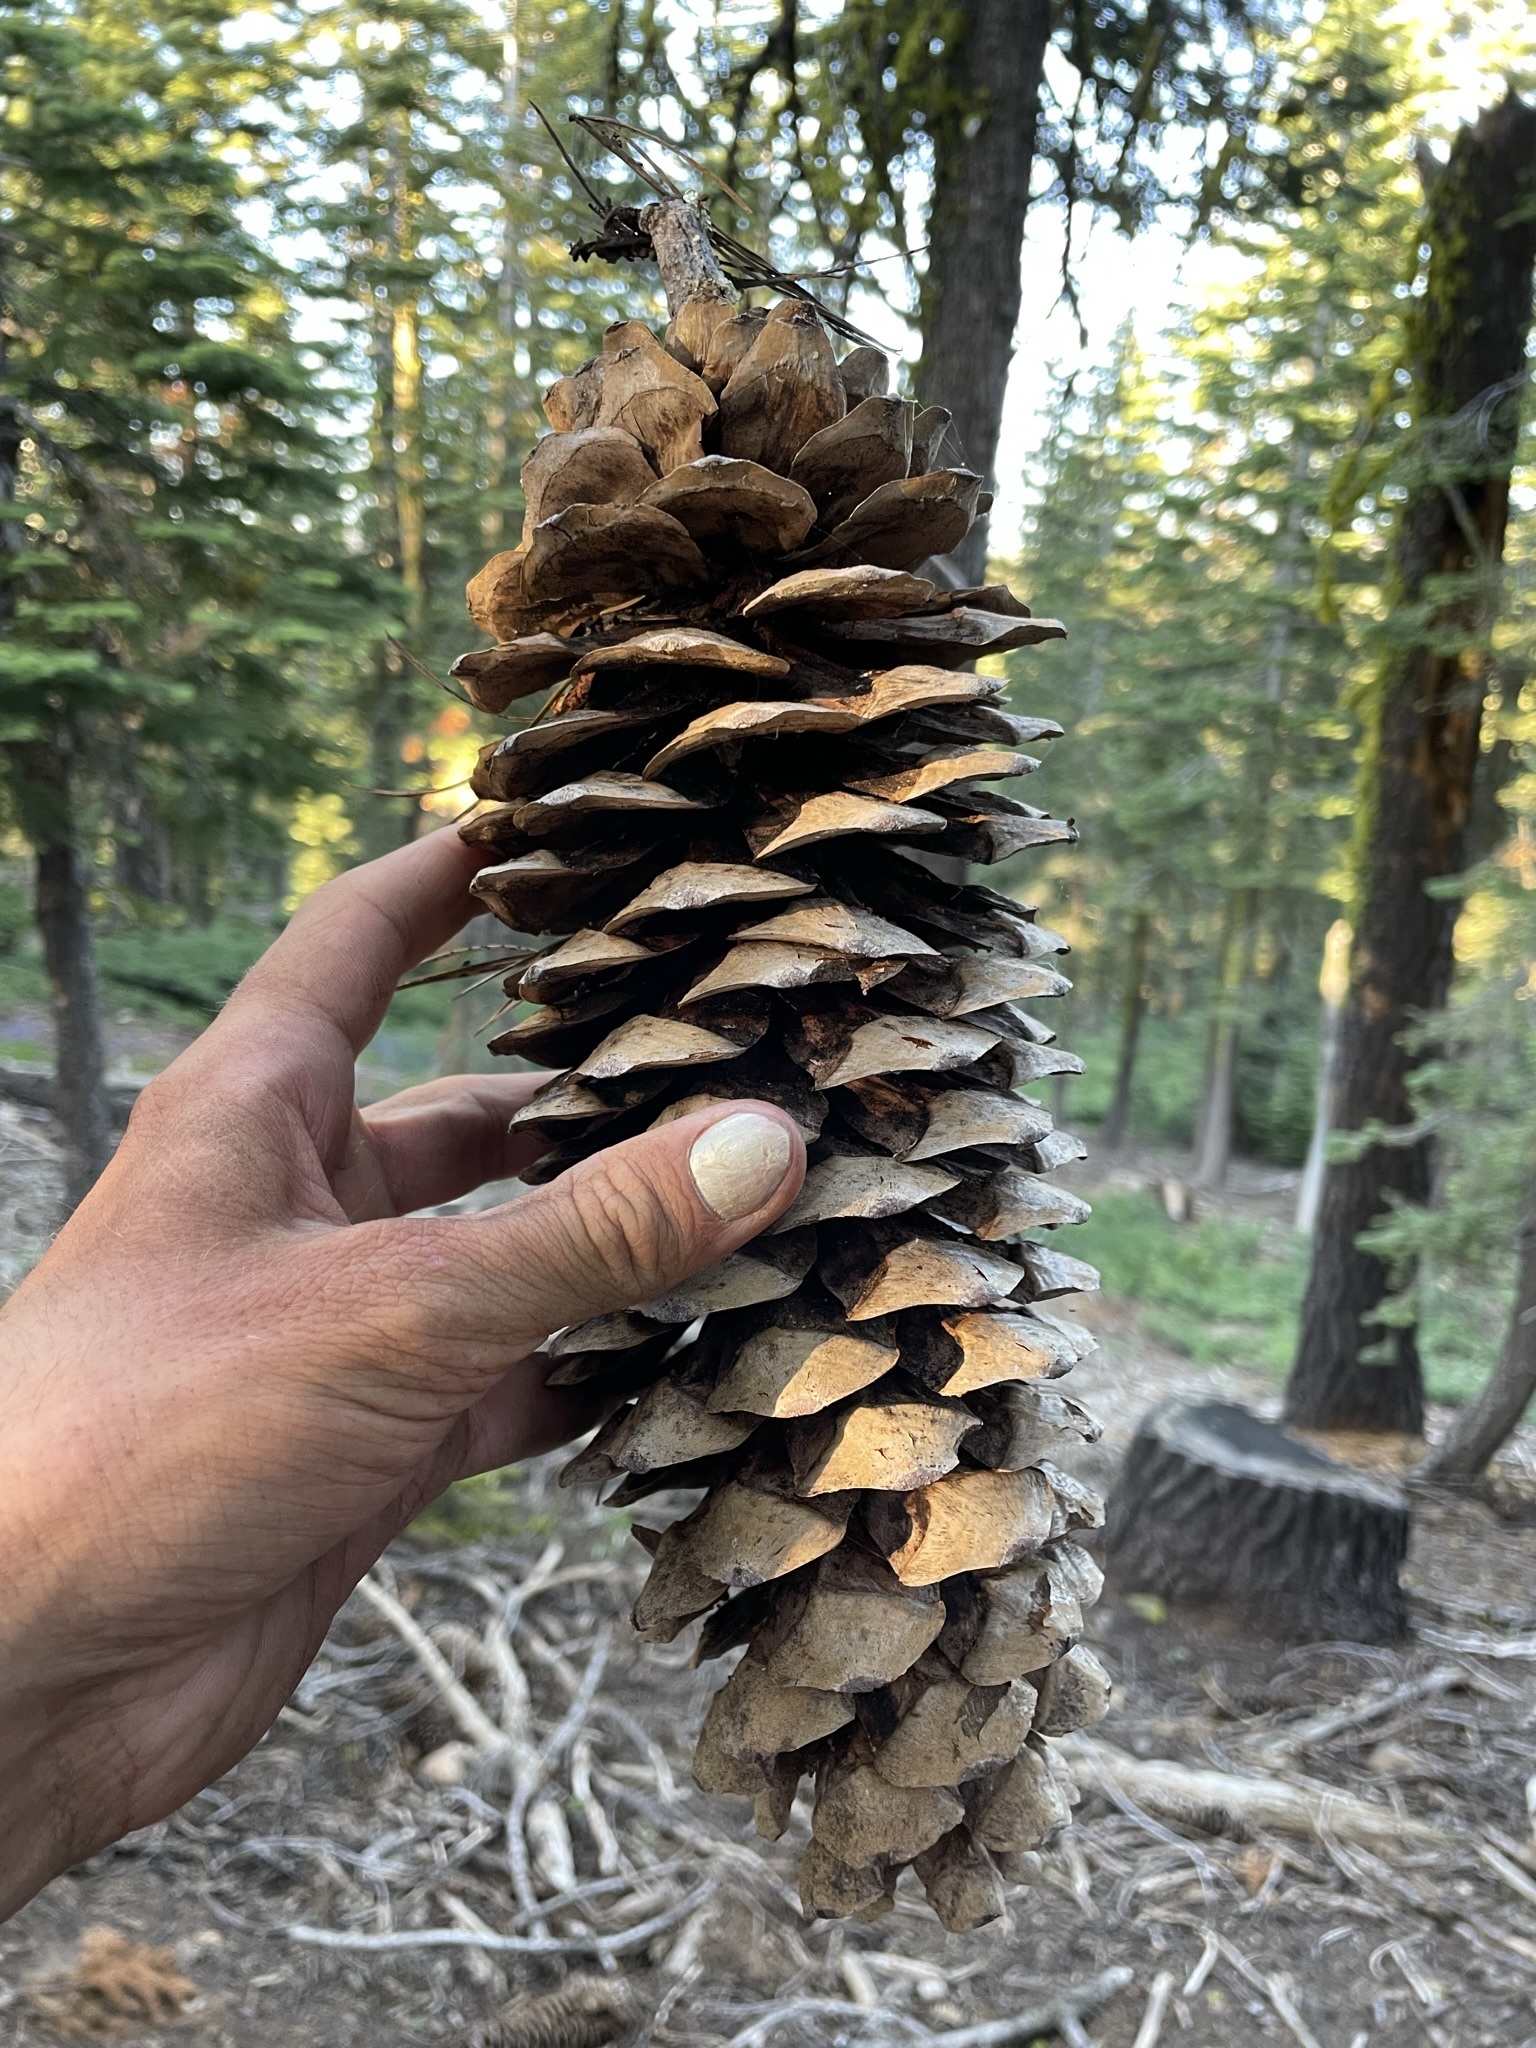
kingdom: Plantae
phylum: Tracheophyta
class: Pinopsida
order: Pinales
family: Pinaceae
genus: Pinus
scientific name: Pinus lambertiana
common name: Sugar pine
